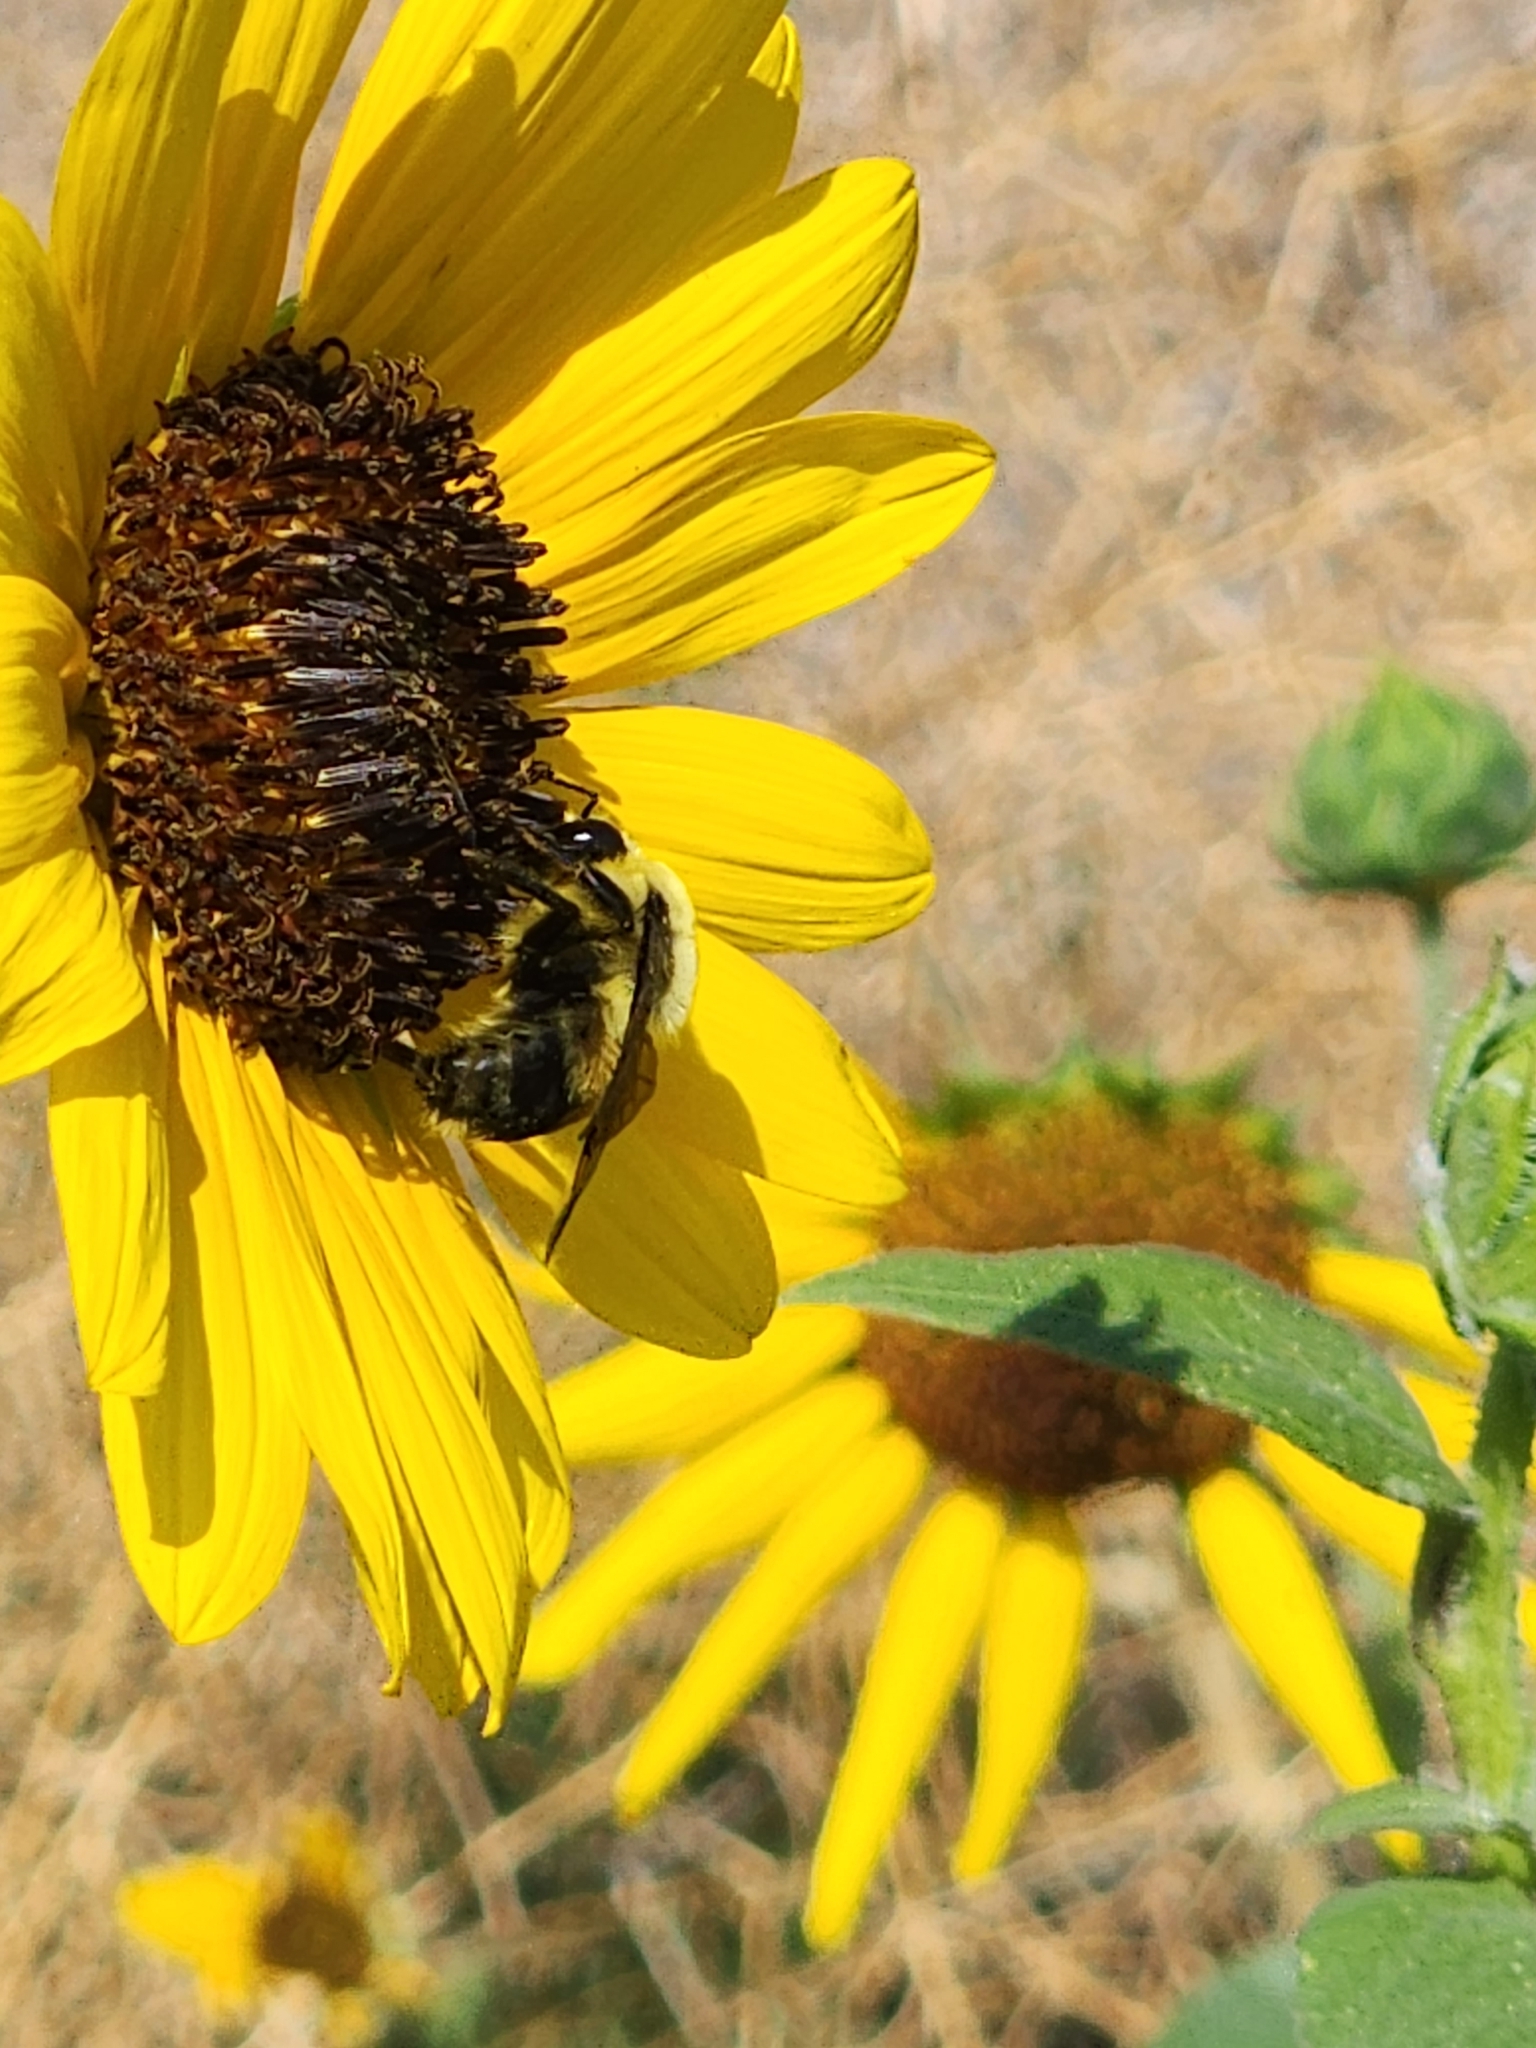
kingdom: Animalia
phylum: Arthropoda
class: Insecta
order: Hymenoptera
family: Apidae
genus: Bombus
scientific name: Bombus griseocollis
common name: Brown-belted bumble bee
